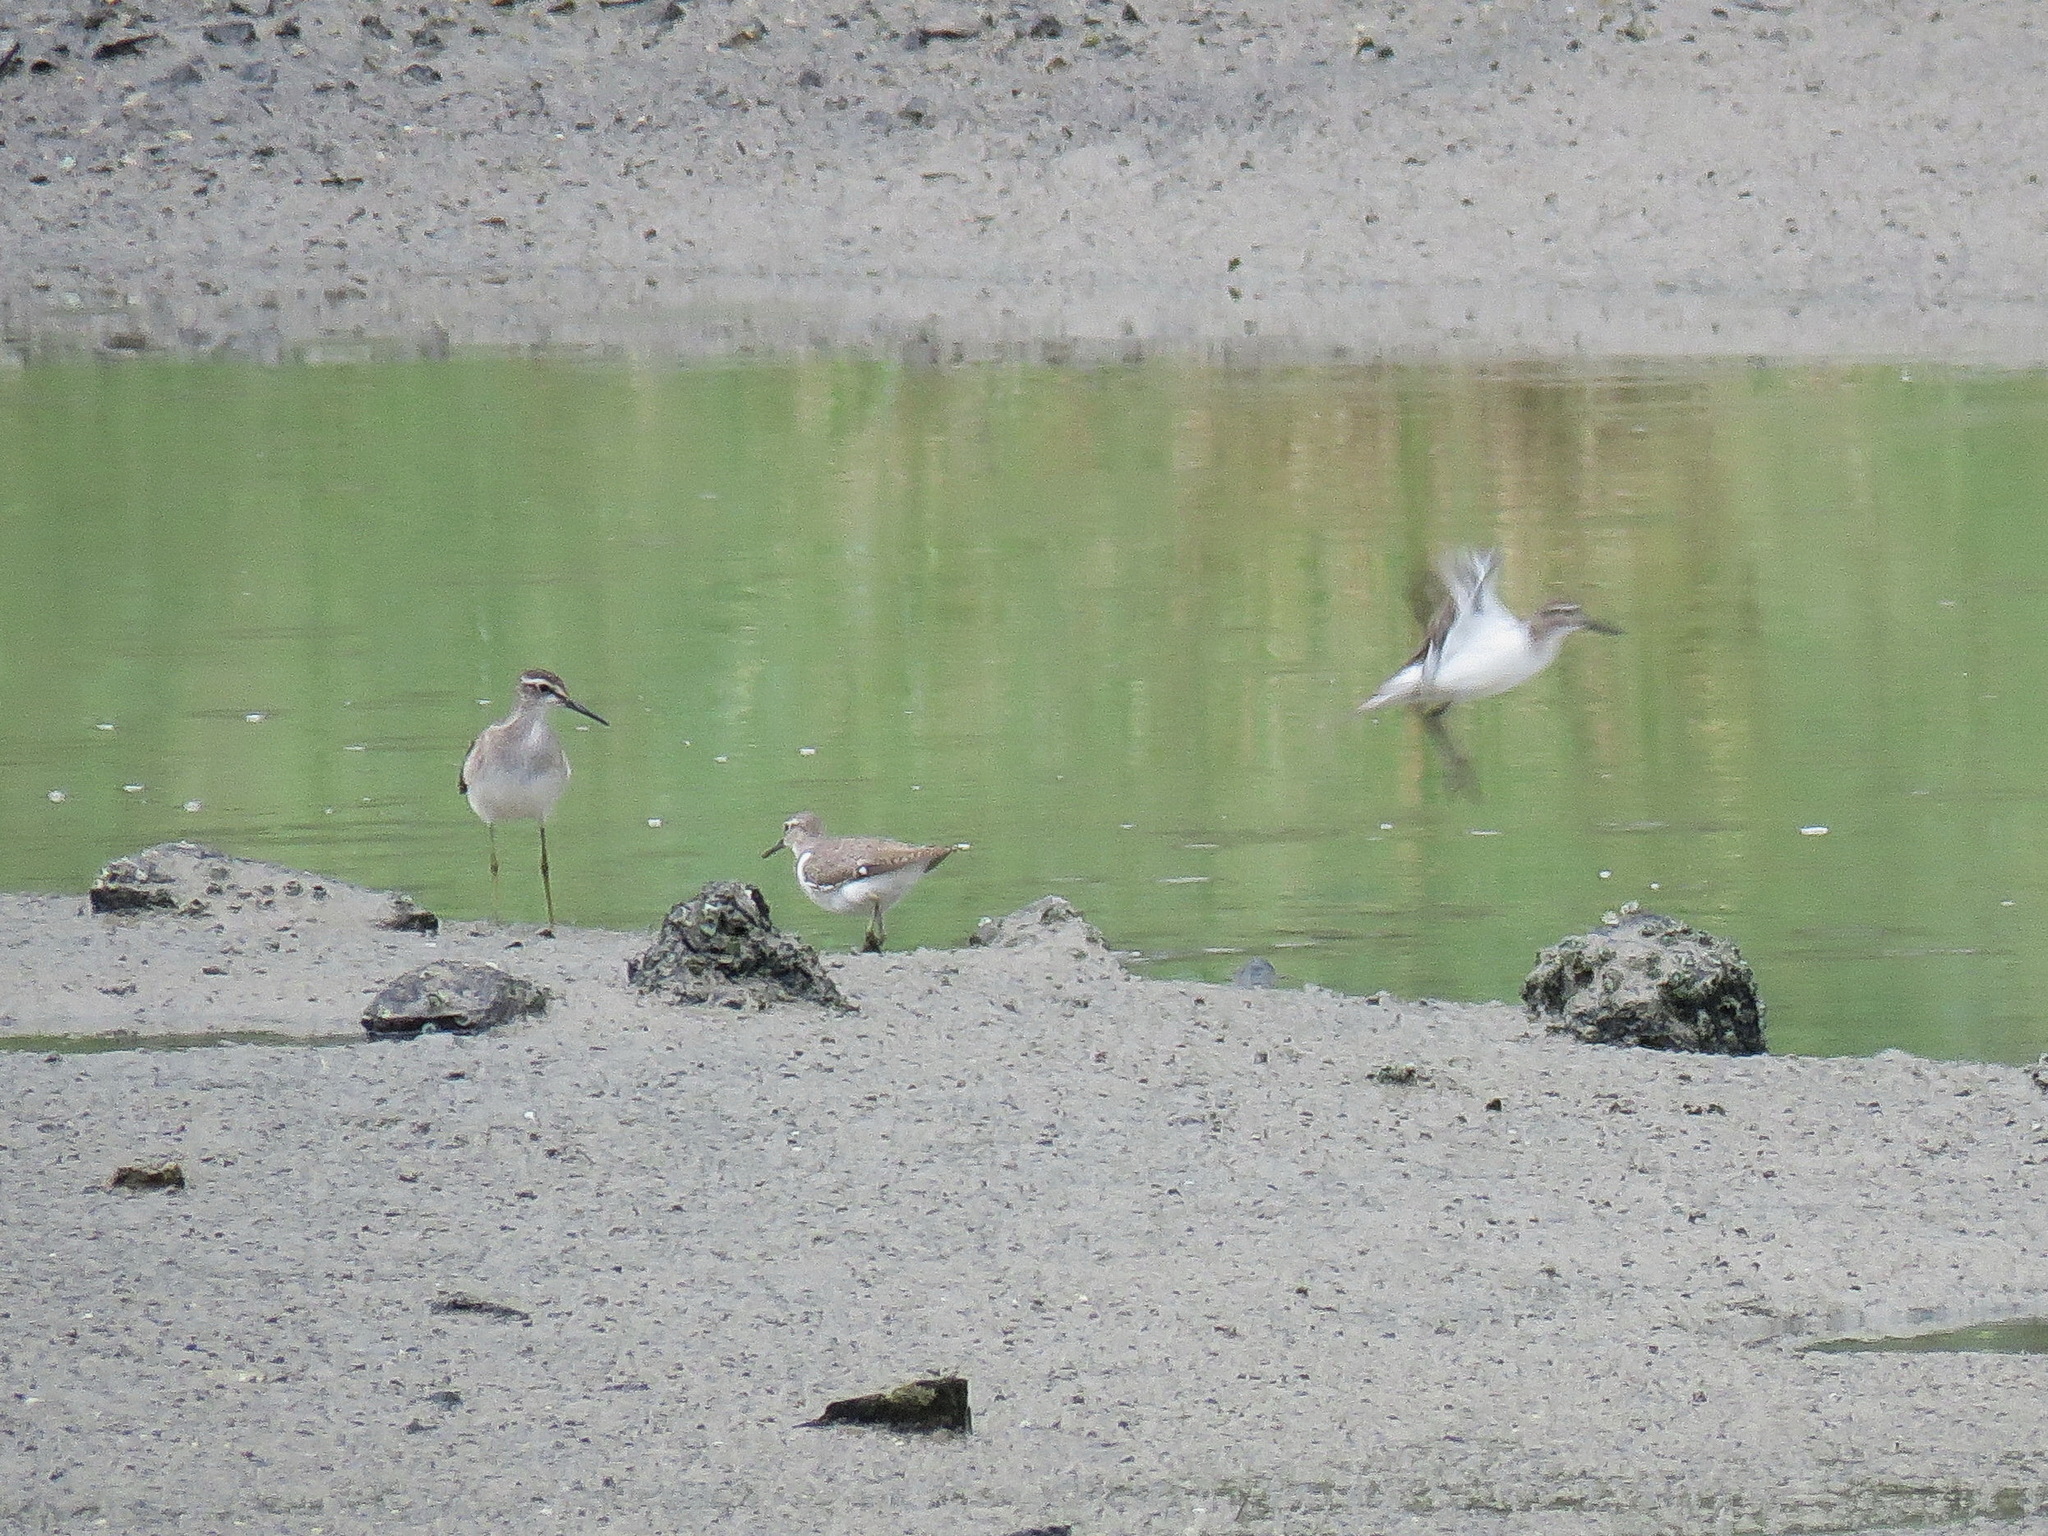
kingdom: Animalia
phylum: Chordata
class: Aves
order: Charadriiformes
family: Scolopacidae
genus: Actitis
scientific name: Actitis hypoleucos
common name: Common sandpiper
